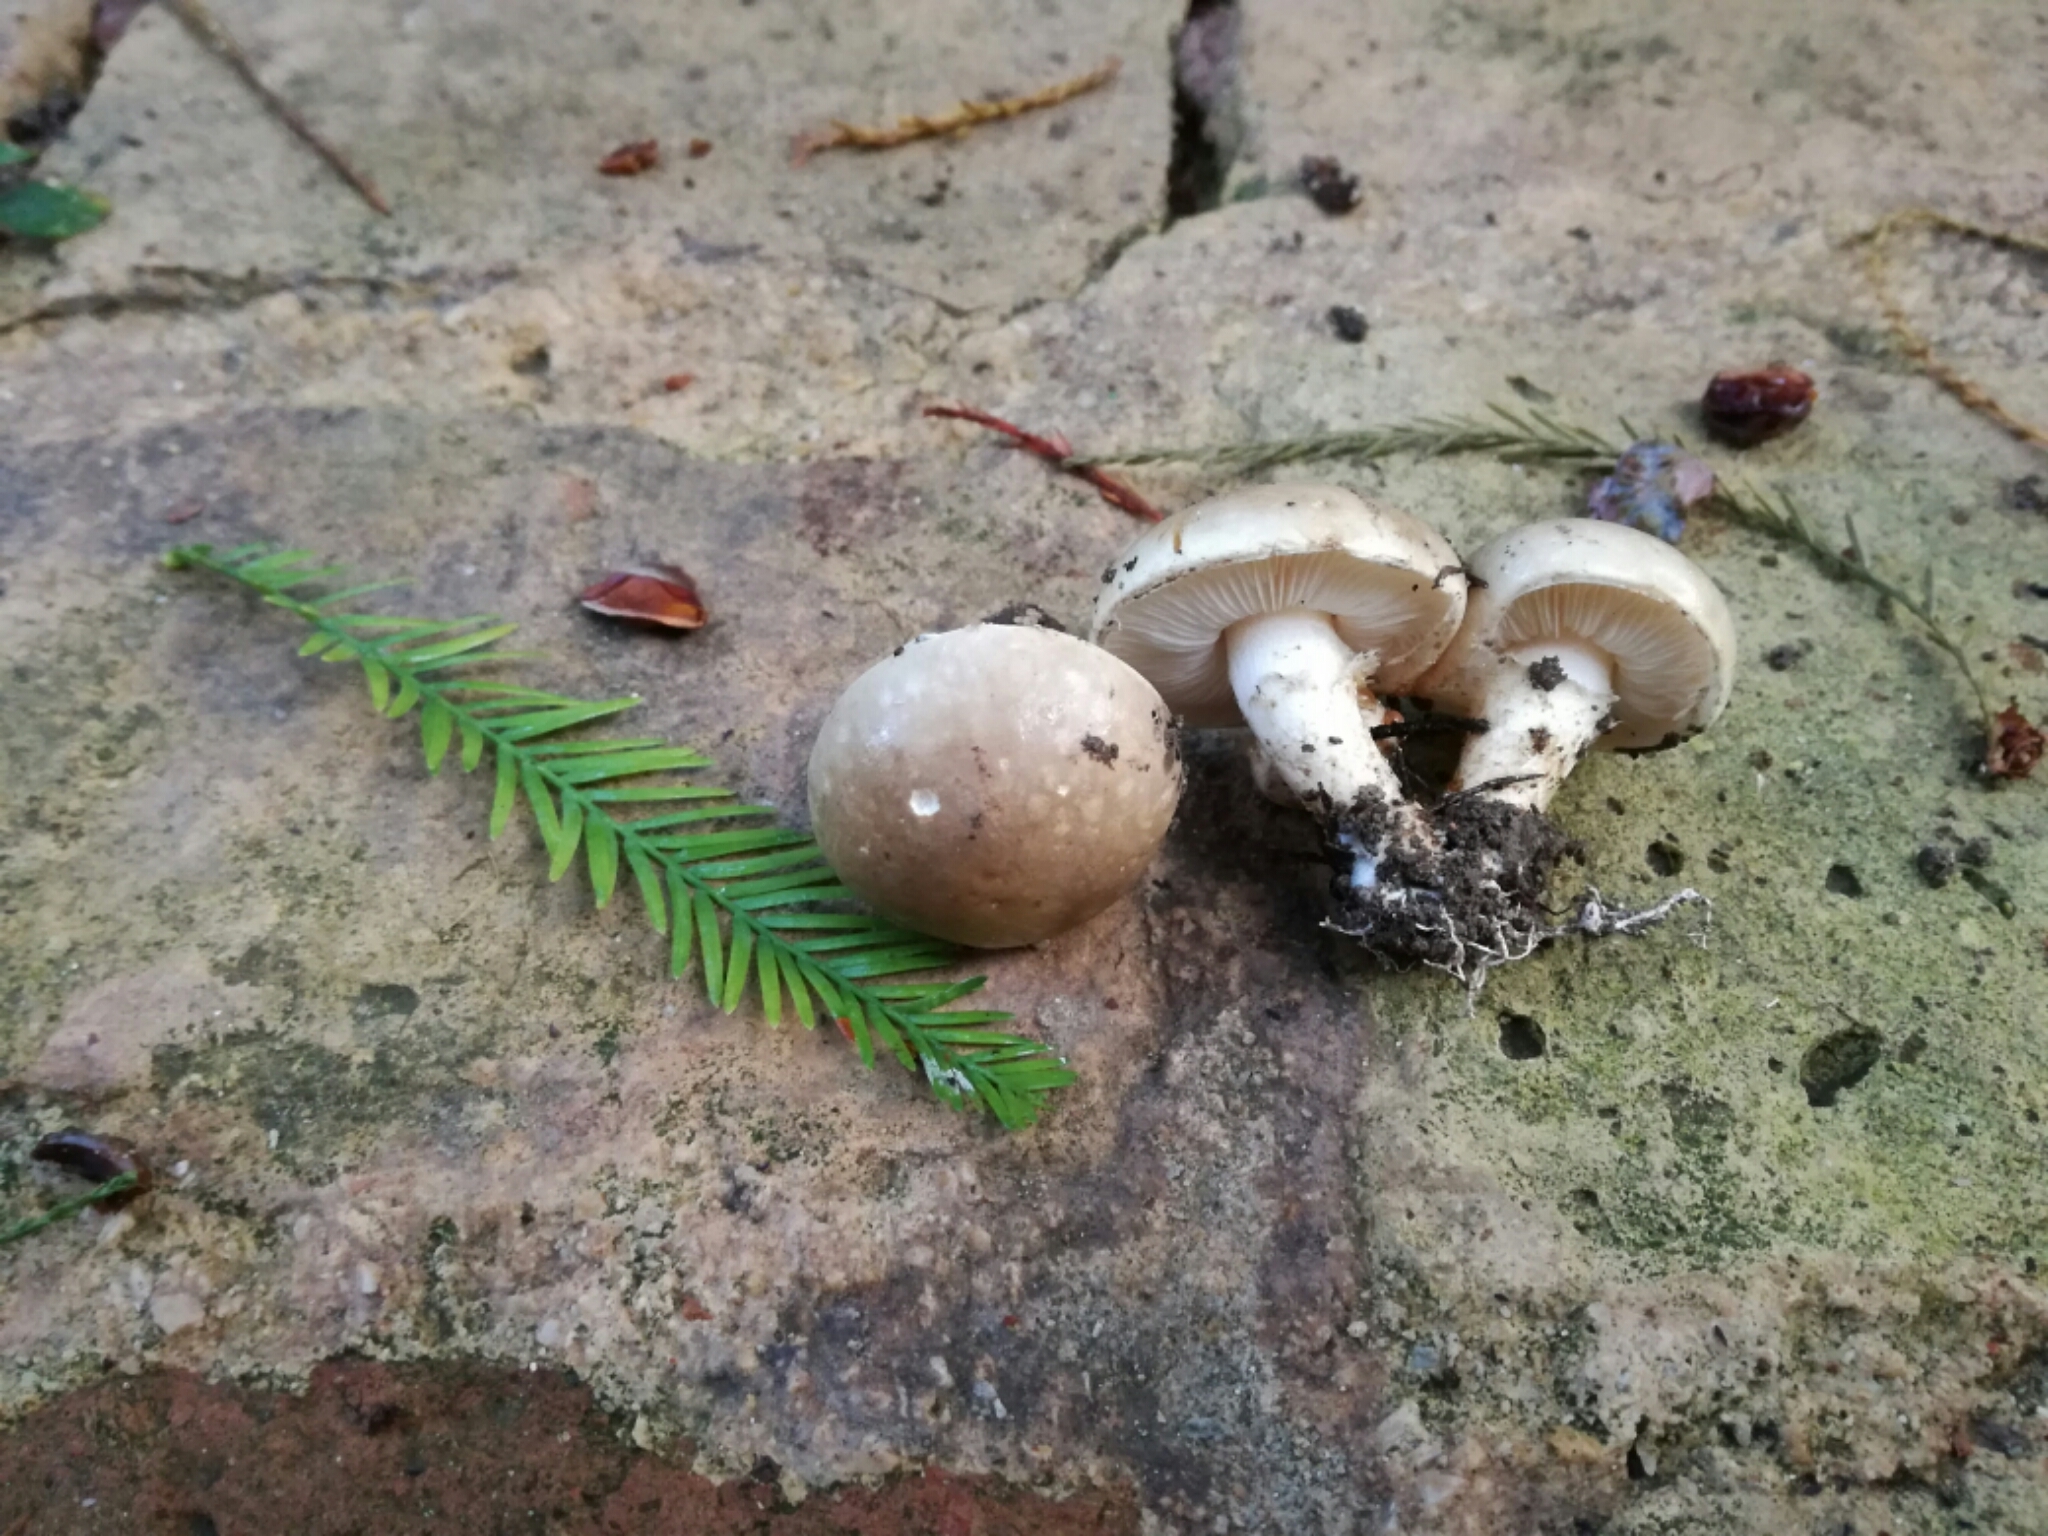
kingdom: Fungi
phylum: Basidiomycota
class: Agaricomycetes
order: Agaricales
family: Agaricaceae
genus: Chamaemyces
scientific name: Chamaemyces fracidus
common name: Dewdrop dapperling
